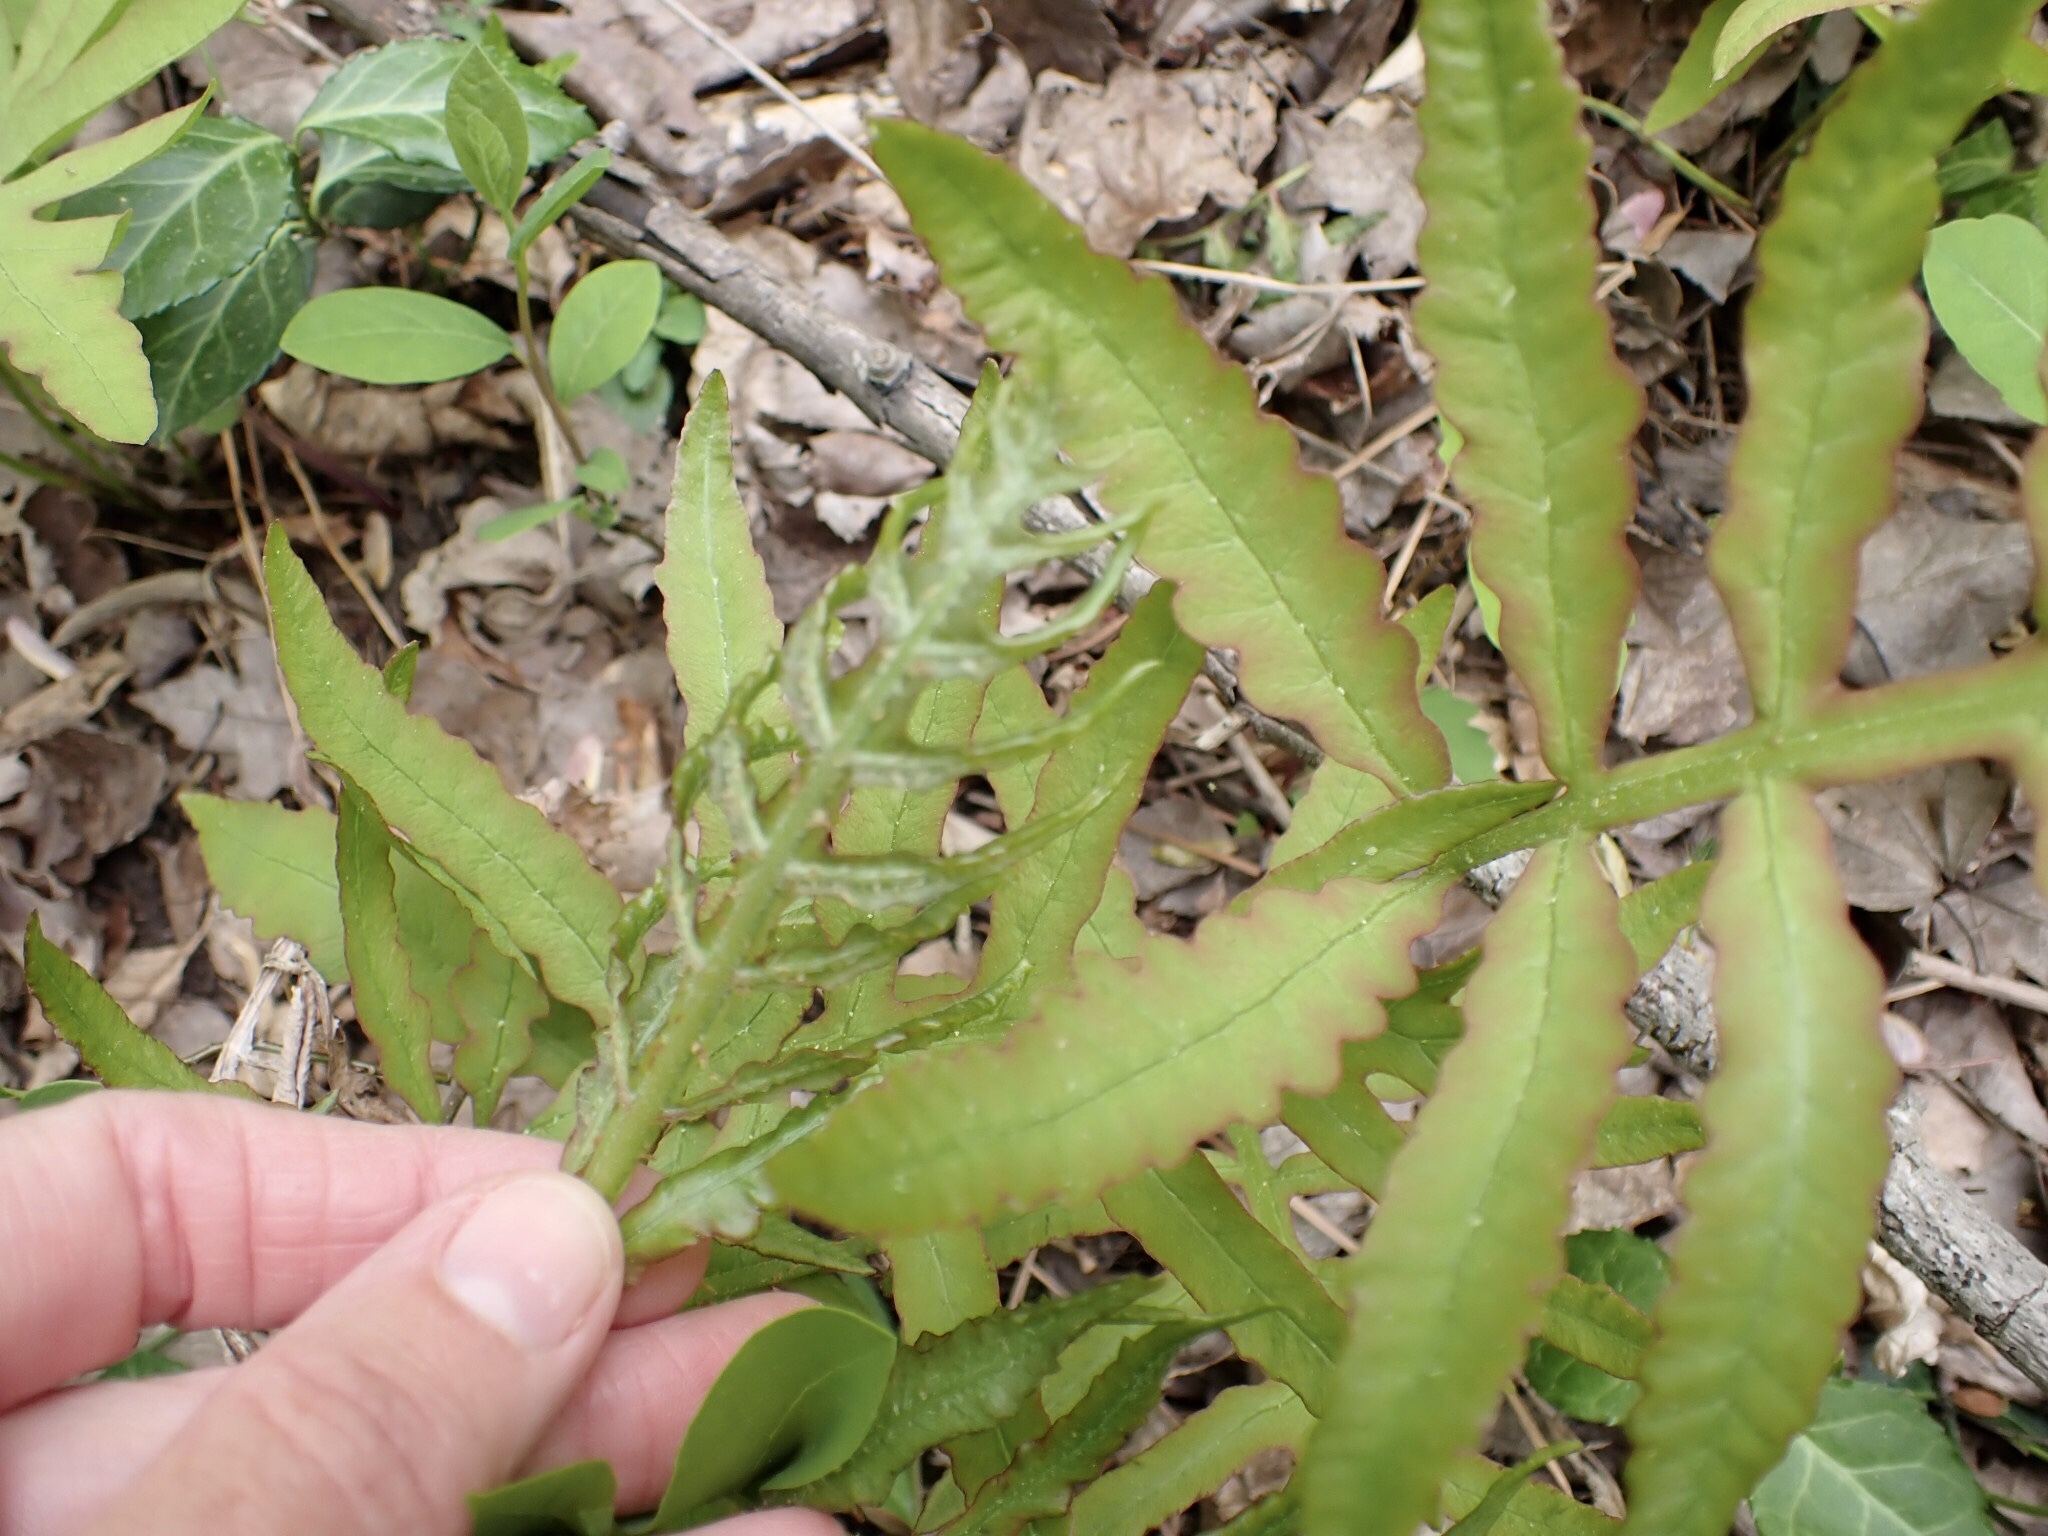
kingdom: Plantae
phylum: Tracheophyta
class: Polypodiopsida
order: Polypodiales
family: Onocleaceae
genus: Onoclea
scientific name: Onoclea sensibilis
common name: Sensitive fern
